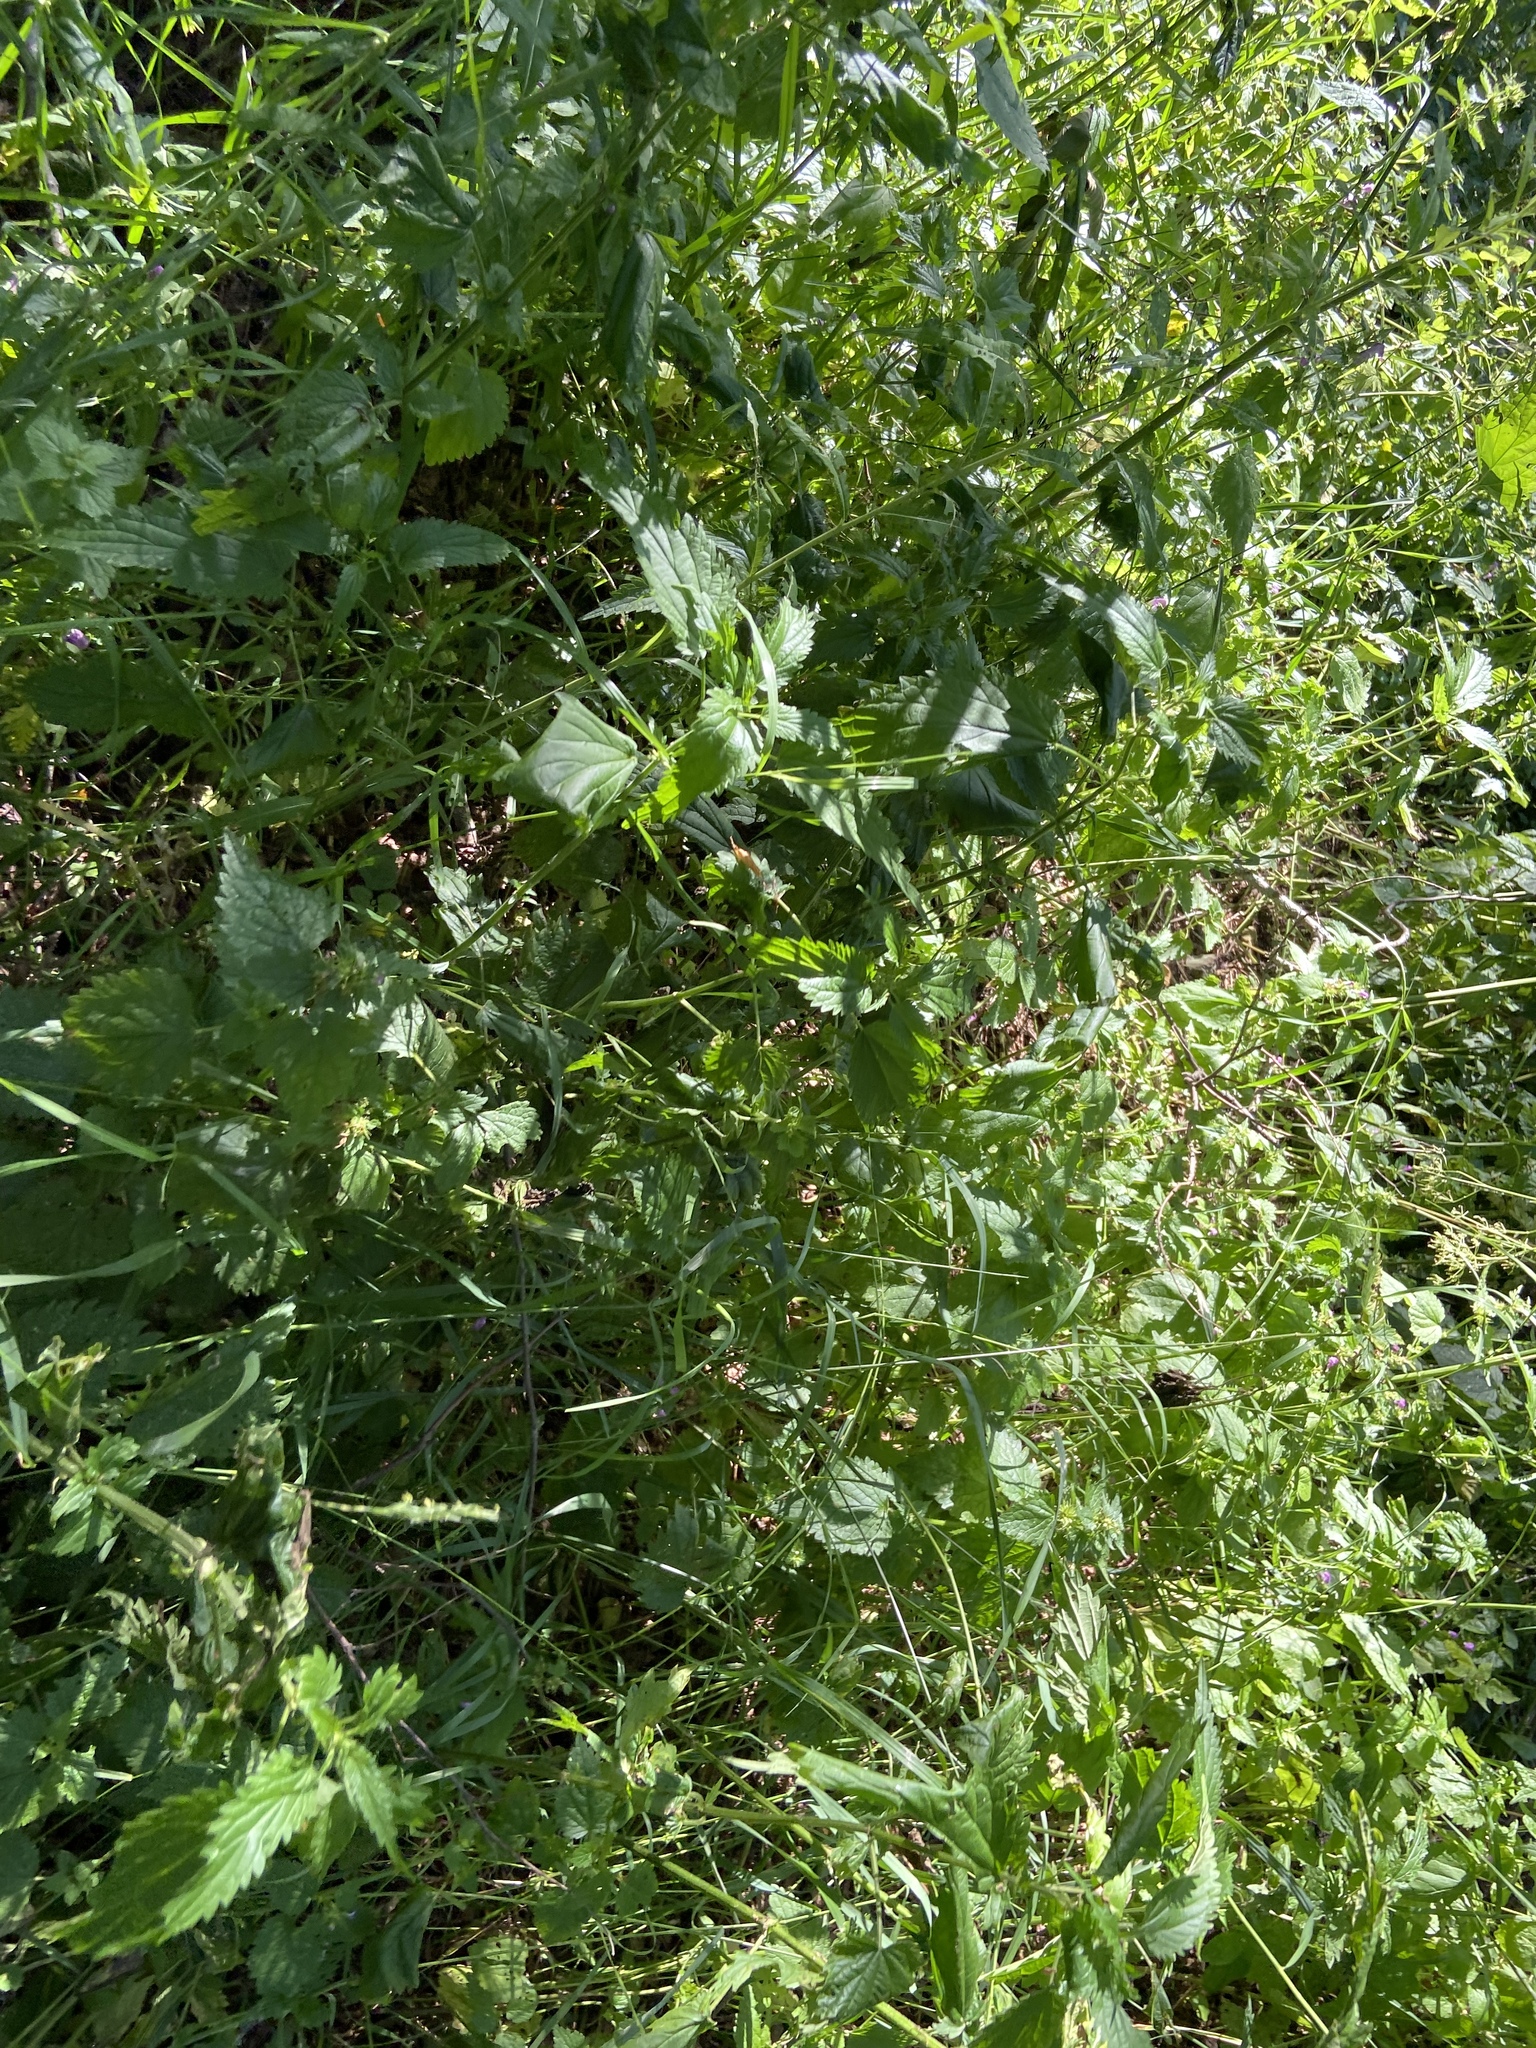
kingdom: Plantae
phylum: Tracheophyta
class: Magnoliopsida
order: Rosales
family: Urticaceae
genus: Urtica
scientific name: Urtica dioica
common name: Common nettle
